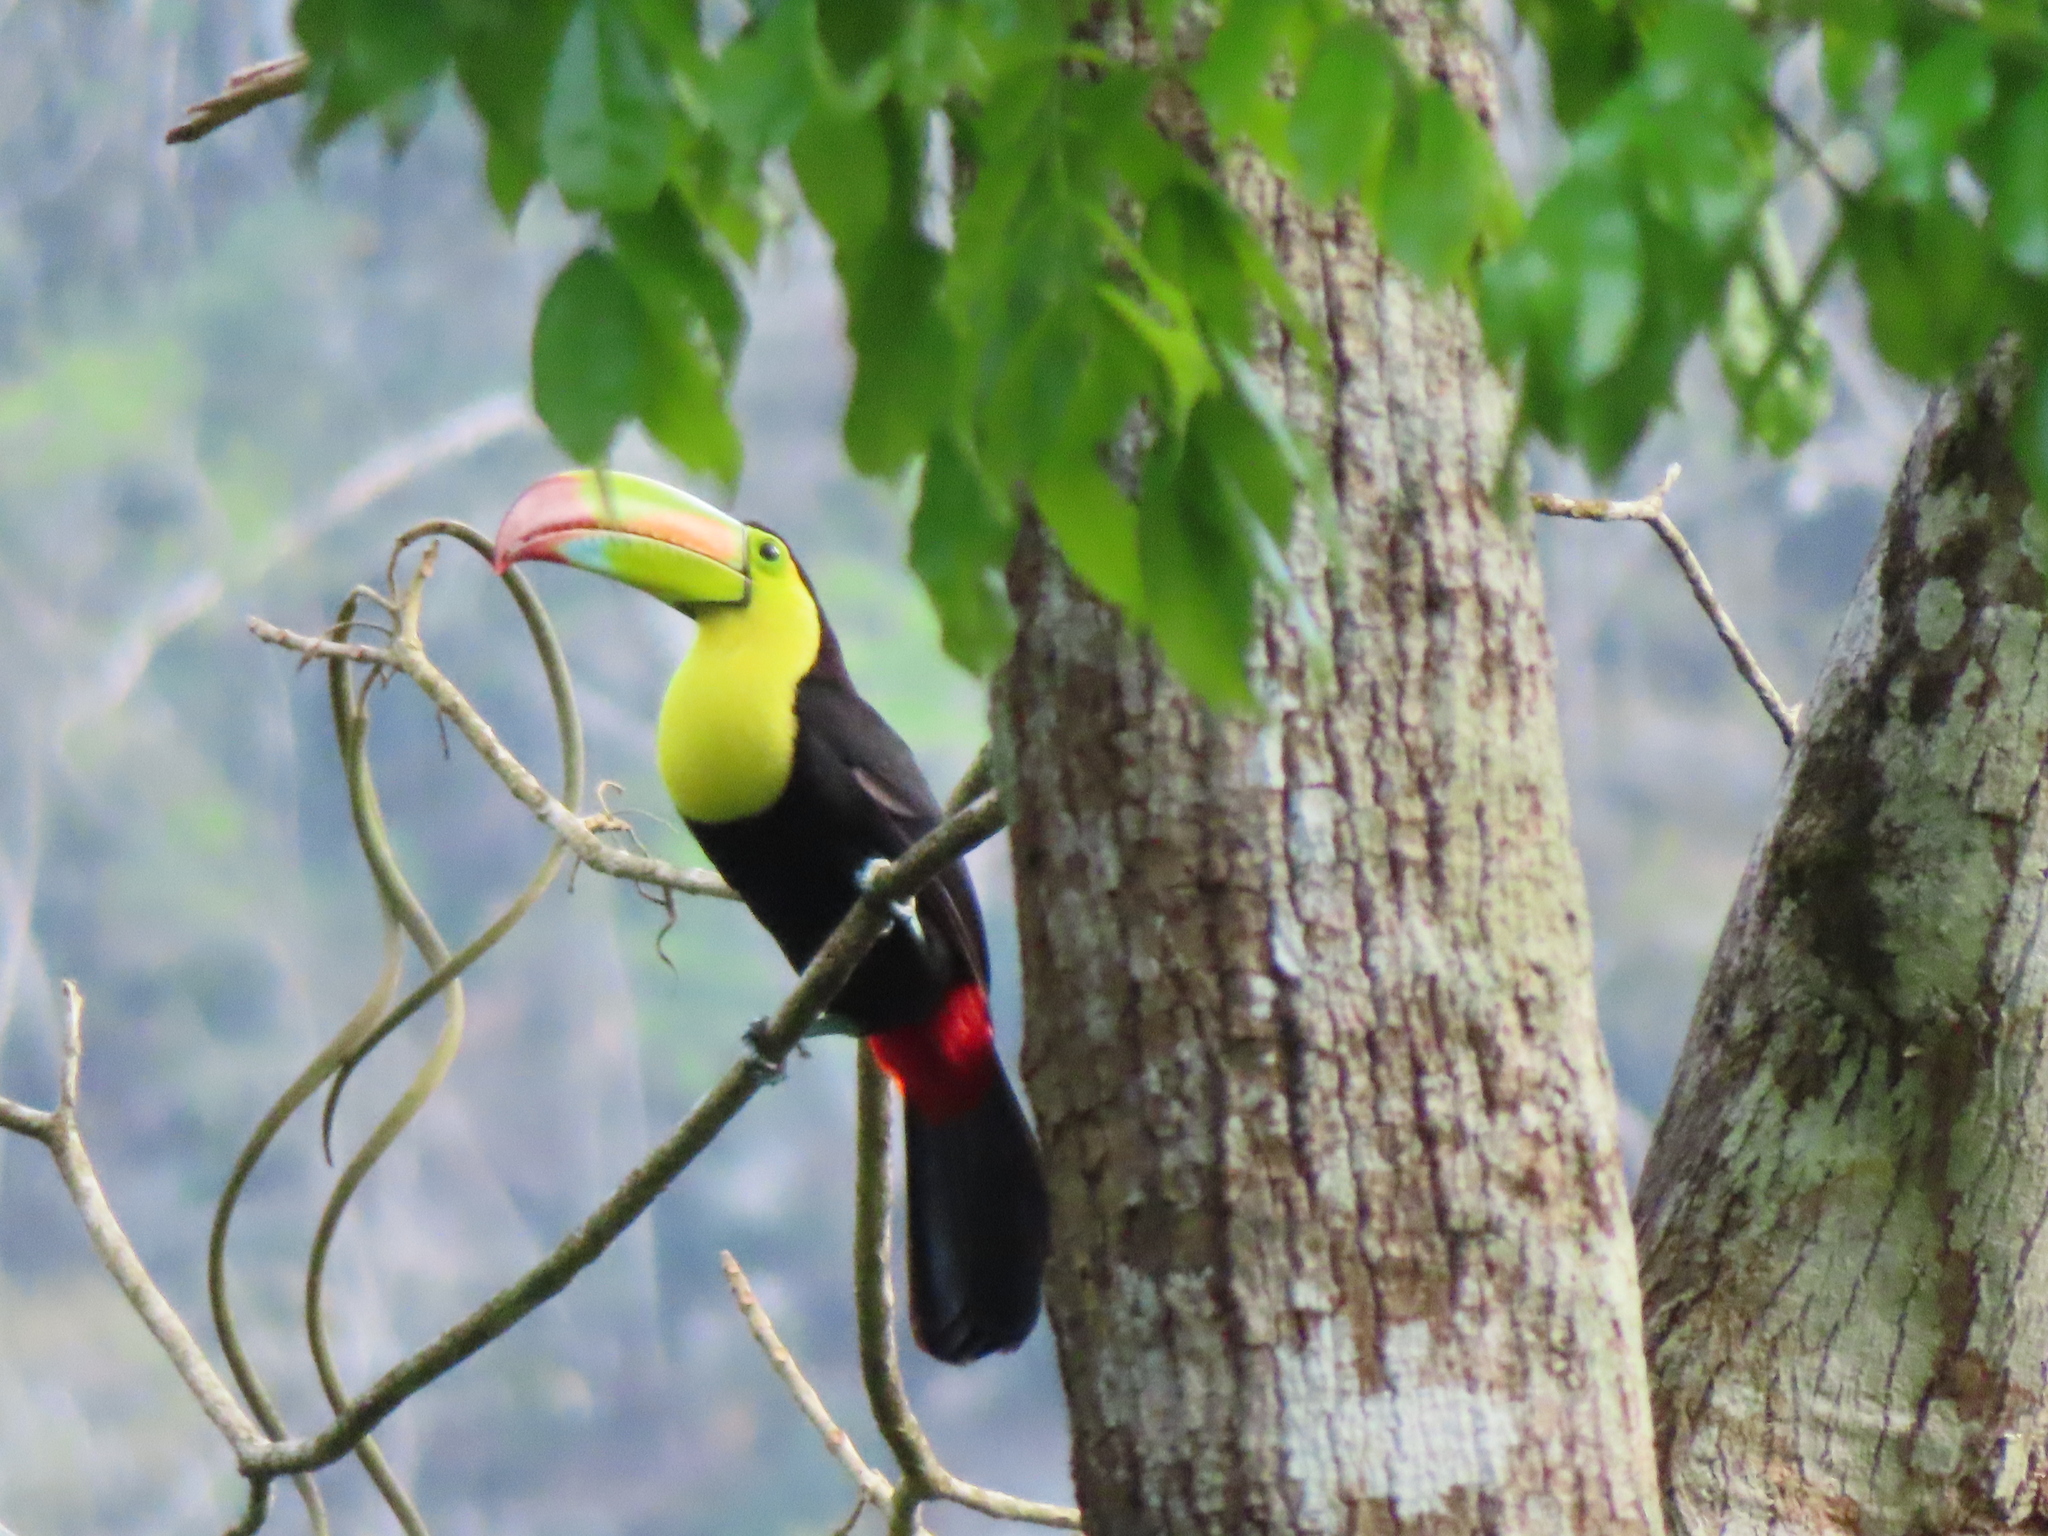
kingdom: Animalia
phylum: Chordata
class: Aves
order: Piciformes
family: Ramphastidae
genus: Ramphastos
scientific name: Ramphastos sulfuratus
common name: Keel-billed toucan
